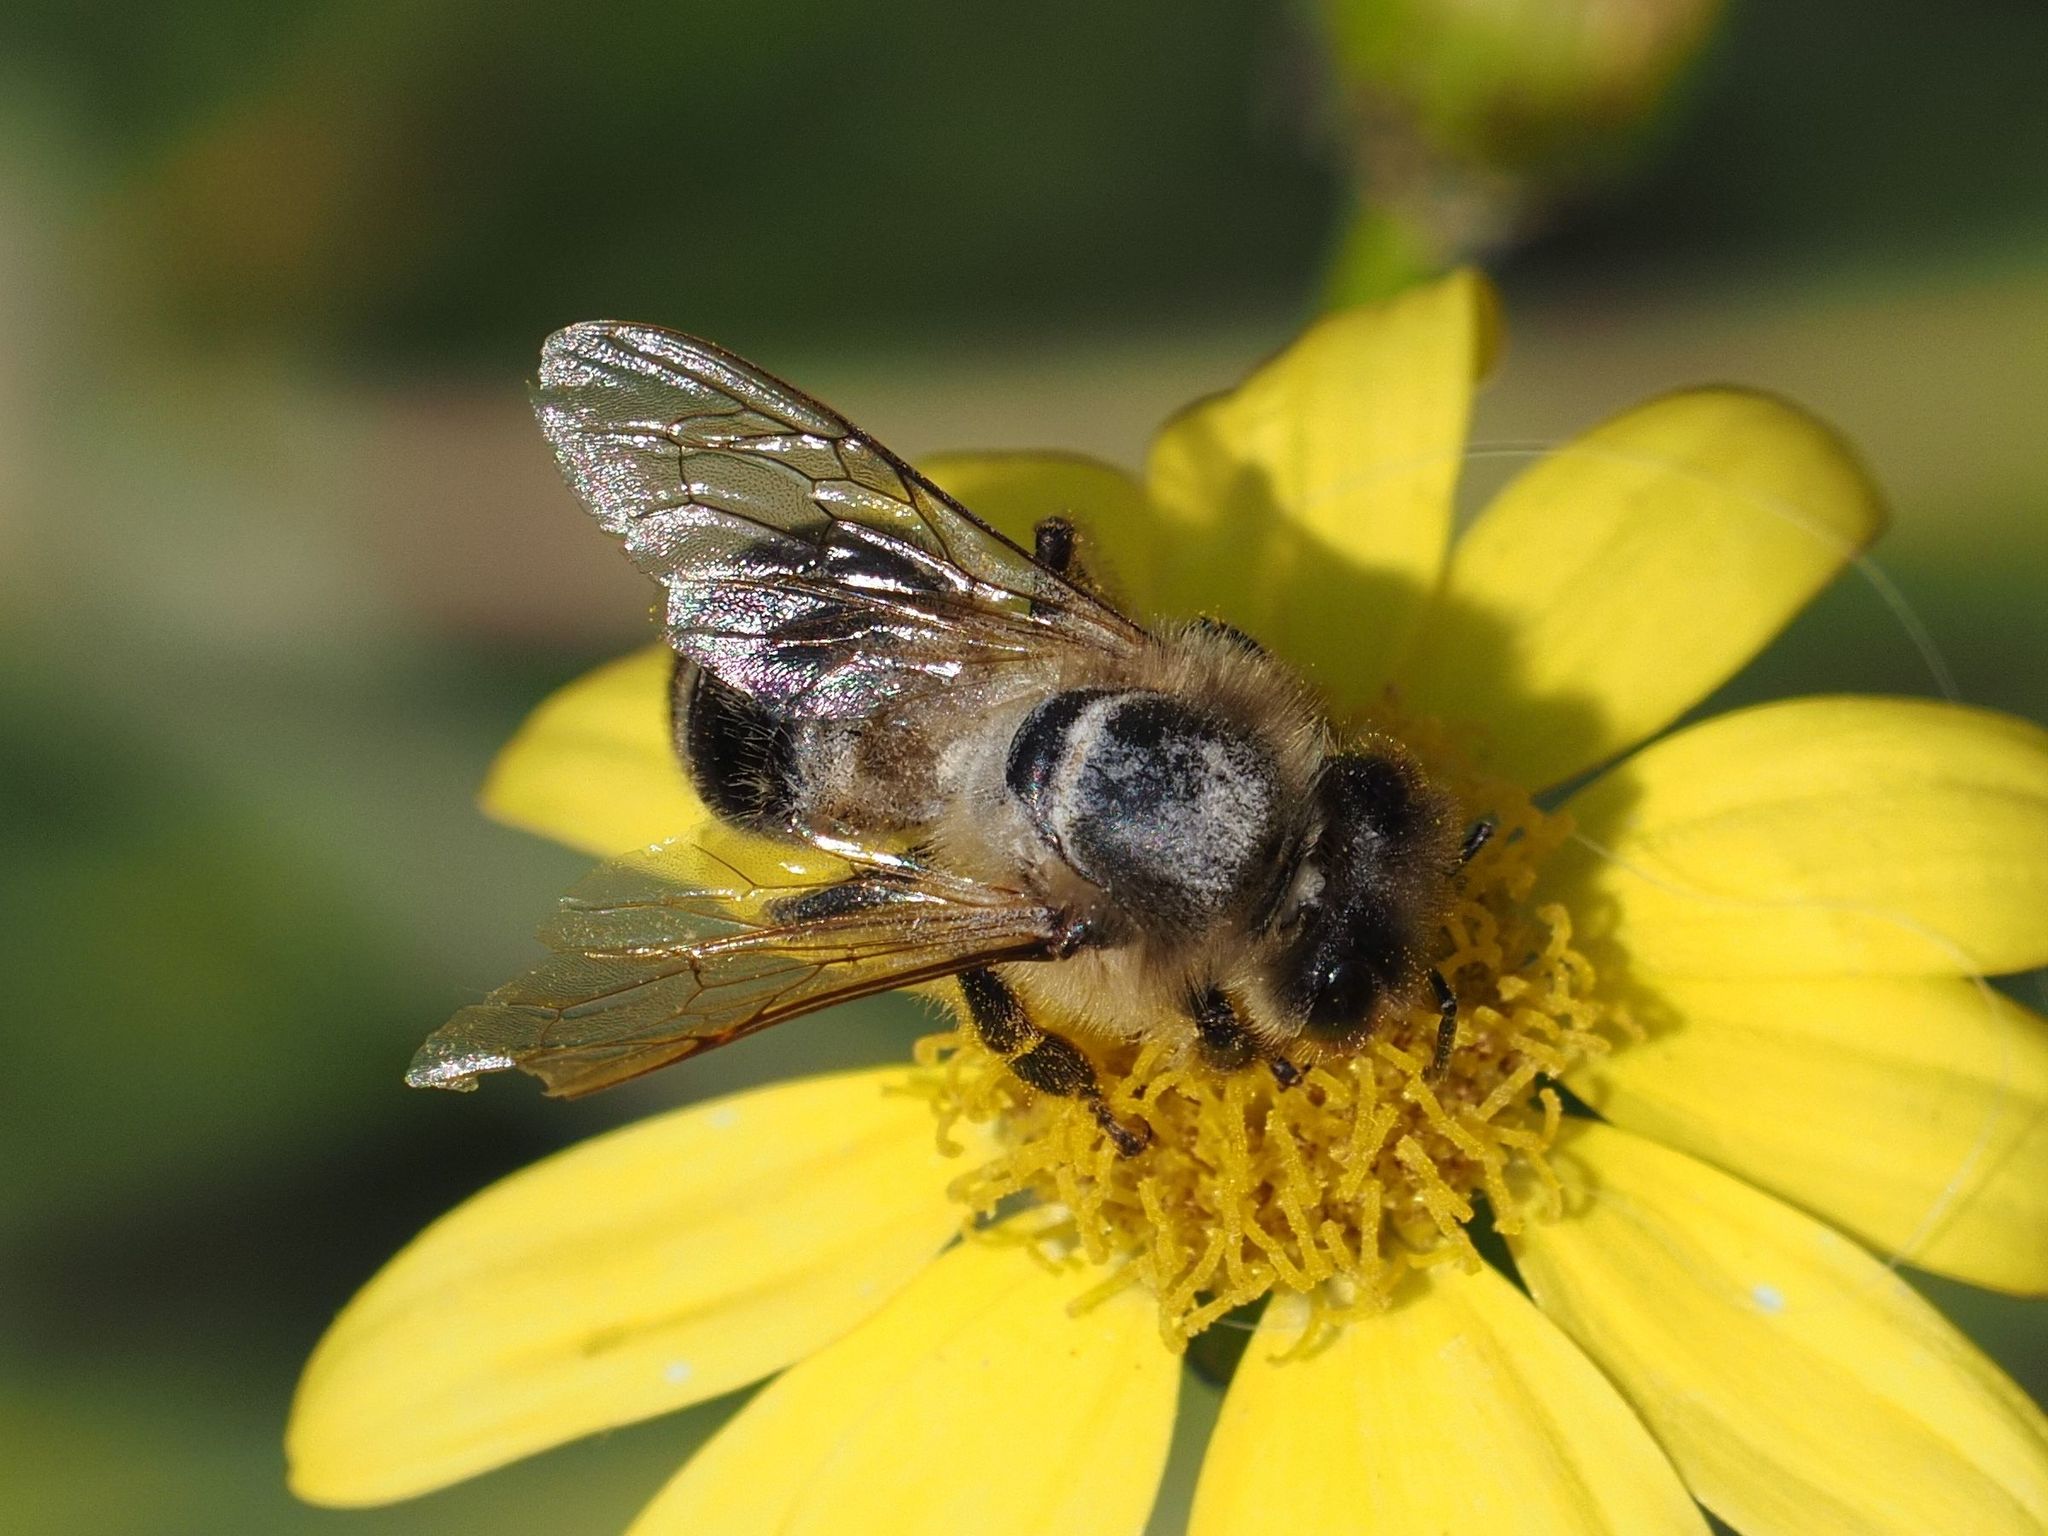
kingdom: Animalia
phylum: Arthropoda
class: Insecta
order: Hymenoptera
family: Apidae
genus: Apis
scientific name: Apis mellifera
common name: Honey bee
